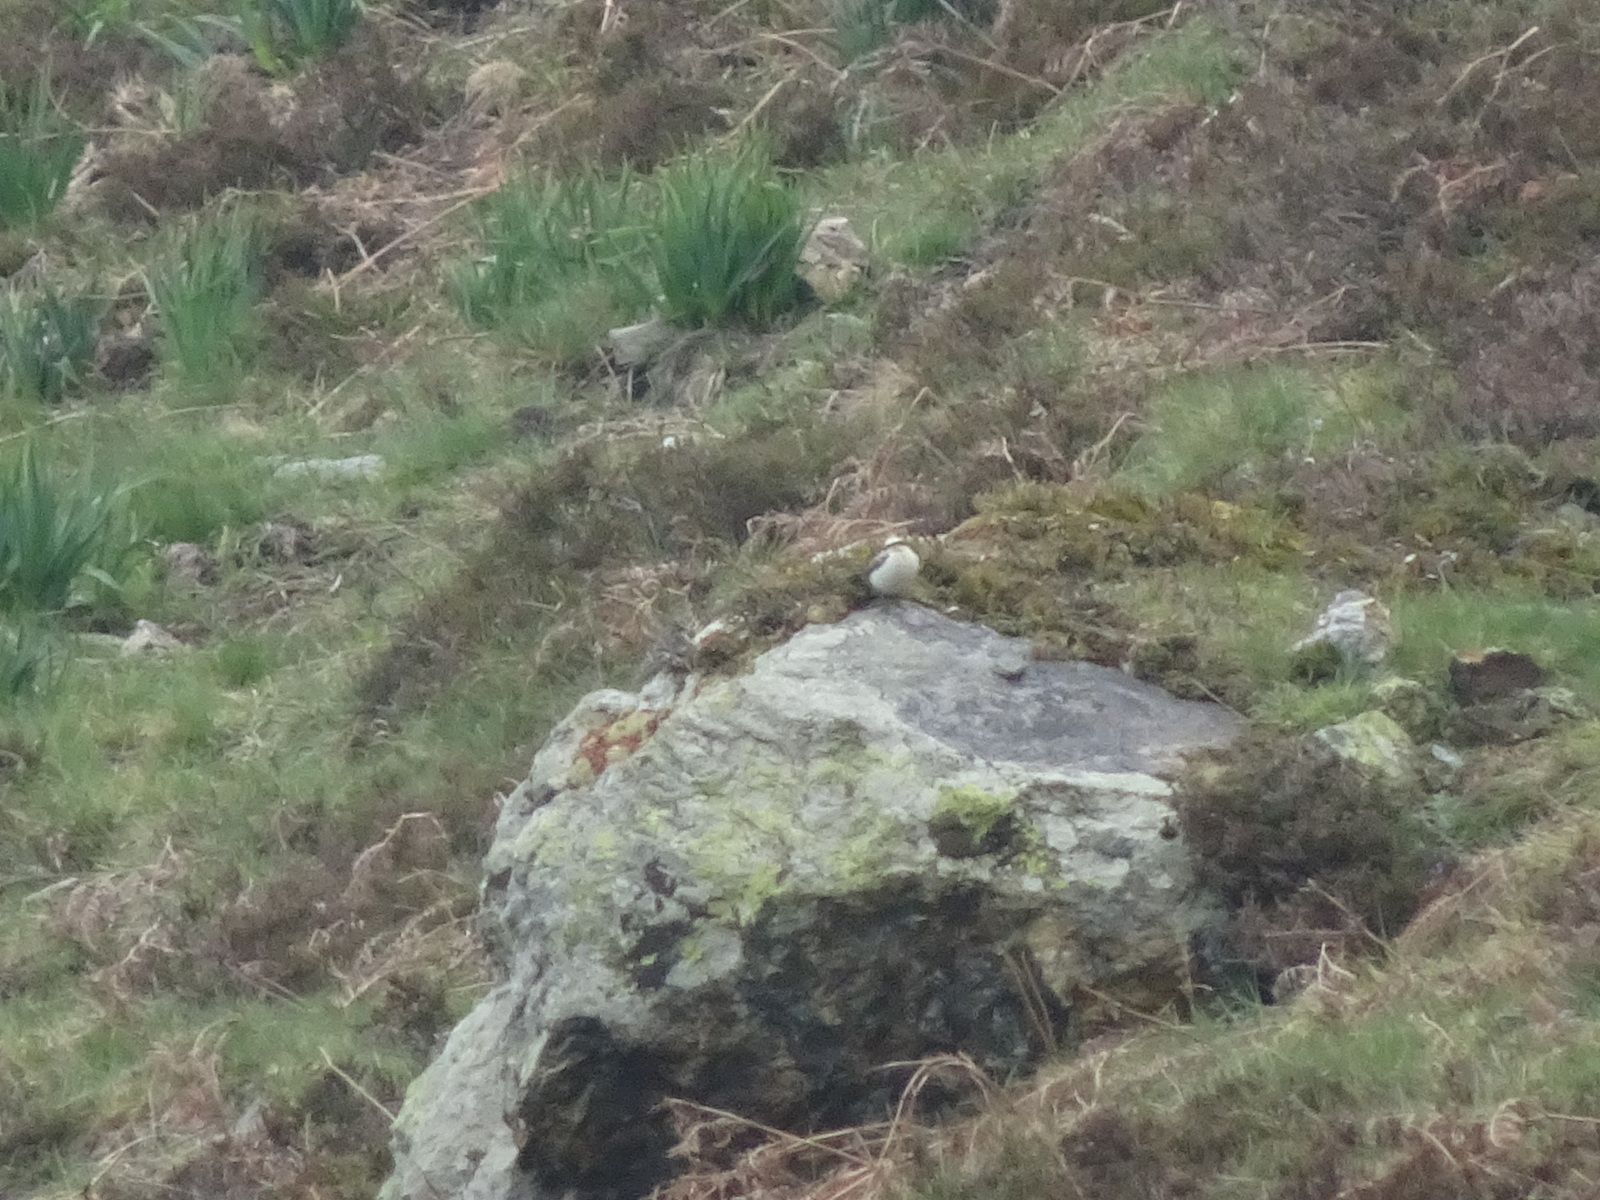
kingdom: Animalia
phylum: Chordata
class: Aves
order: Passeriformes
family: Muscicapidae
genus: Oenanthe
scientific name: Oenanthe oenanthe
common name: Northern wheatear
